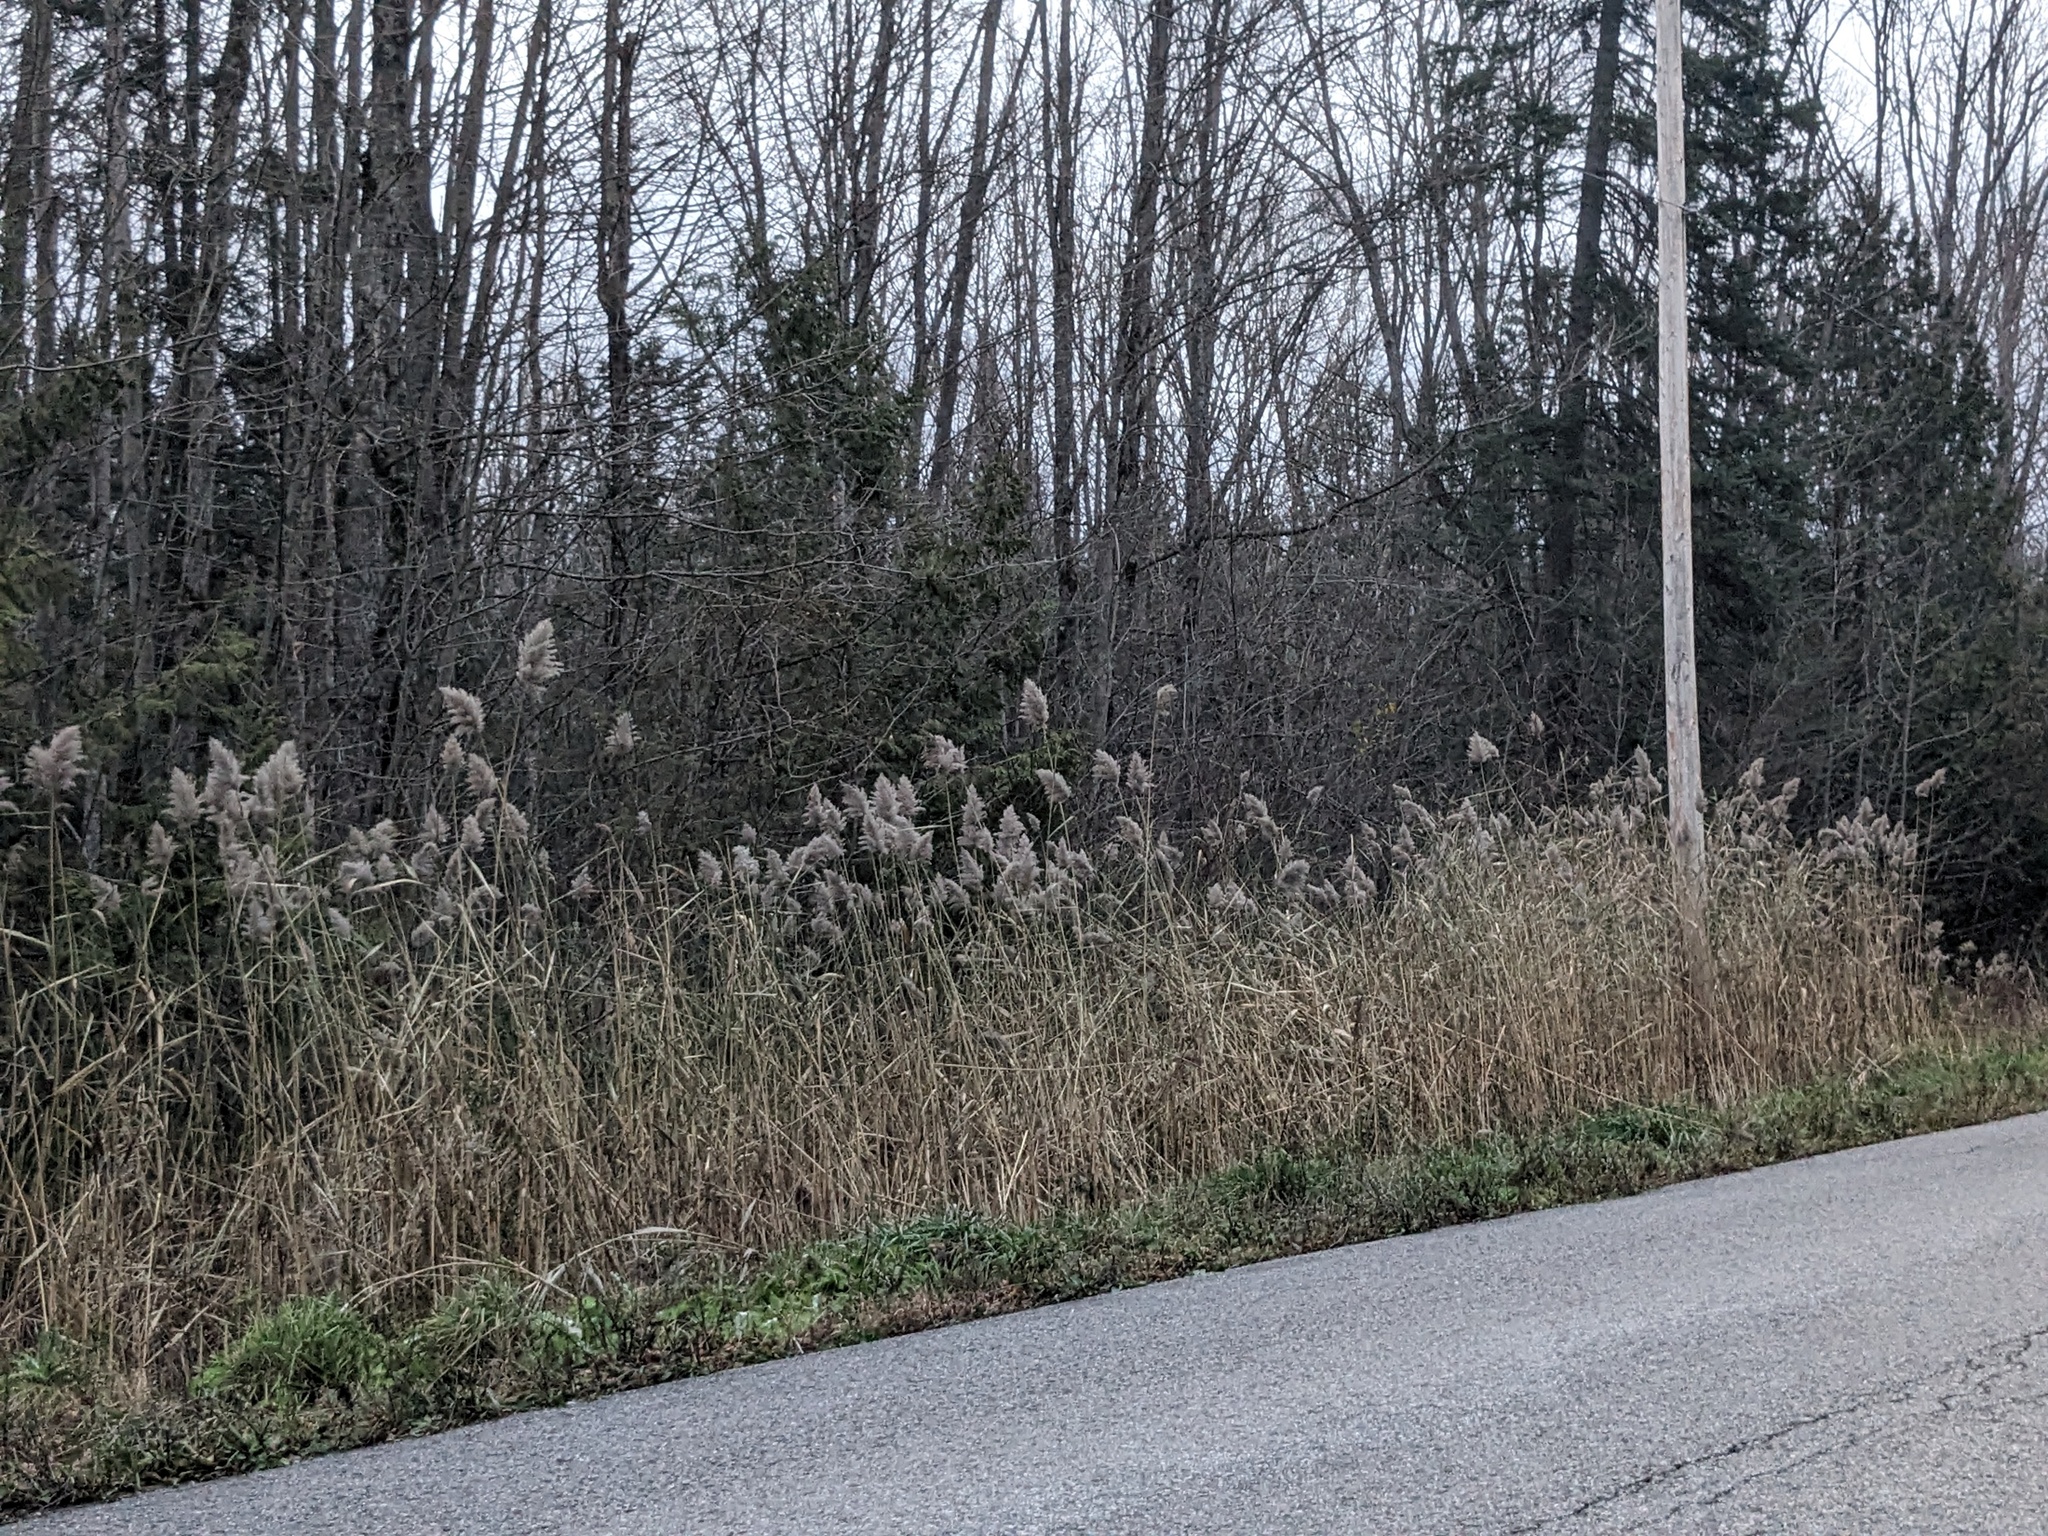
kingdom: Plantae
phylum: Tracheophyta
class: Liliopsida
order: Poales
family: Poaceae
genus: Phragmites
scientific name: Phragmites australis
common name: Common reed
